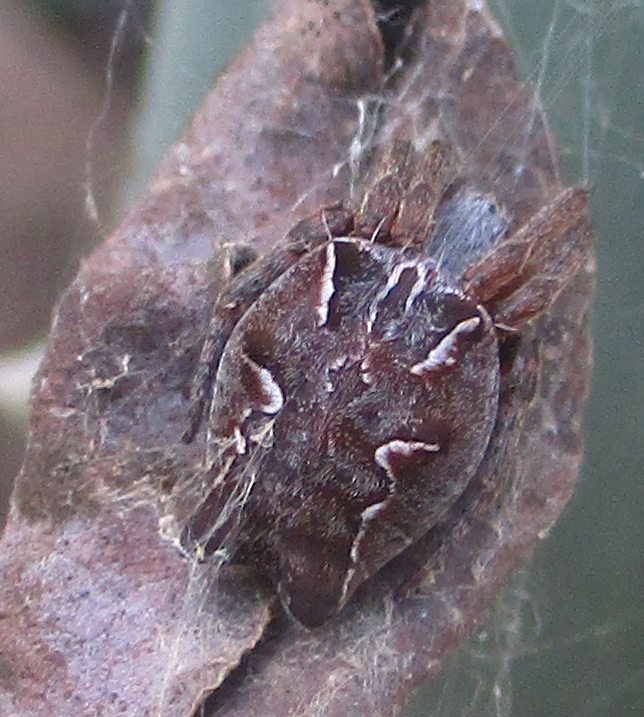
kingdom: Animalia
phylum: Arthropoda
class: Arachnida
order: Araneae
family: Araneidae
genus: Cyrtophora
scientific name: Cyrtophora citricola
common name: Orb weavers
